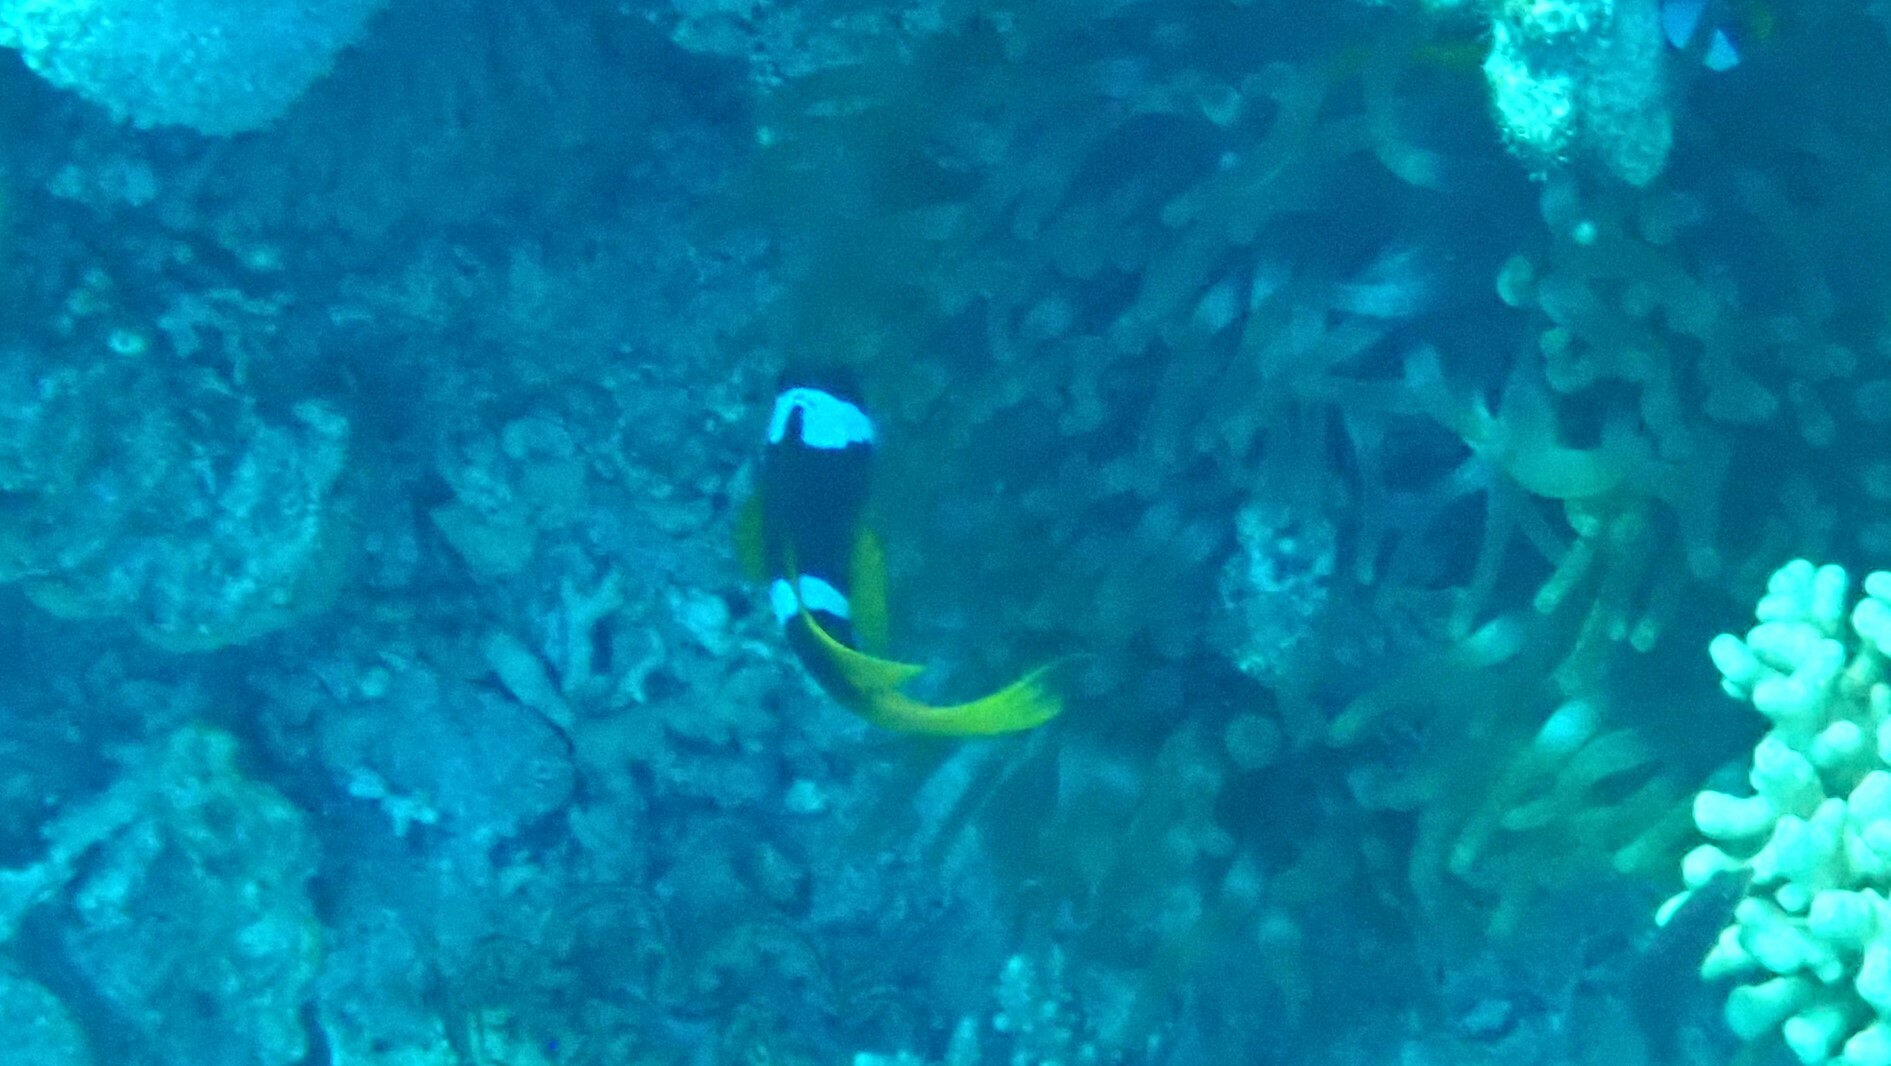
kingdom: Animalia
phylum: Chordata
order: Perciformes
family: Pomacentridae
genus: Amphiprion
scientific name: Amphiprion bicinctus
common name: Two-banded anemonefish
